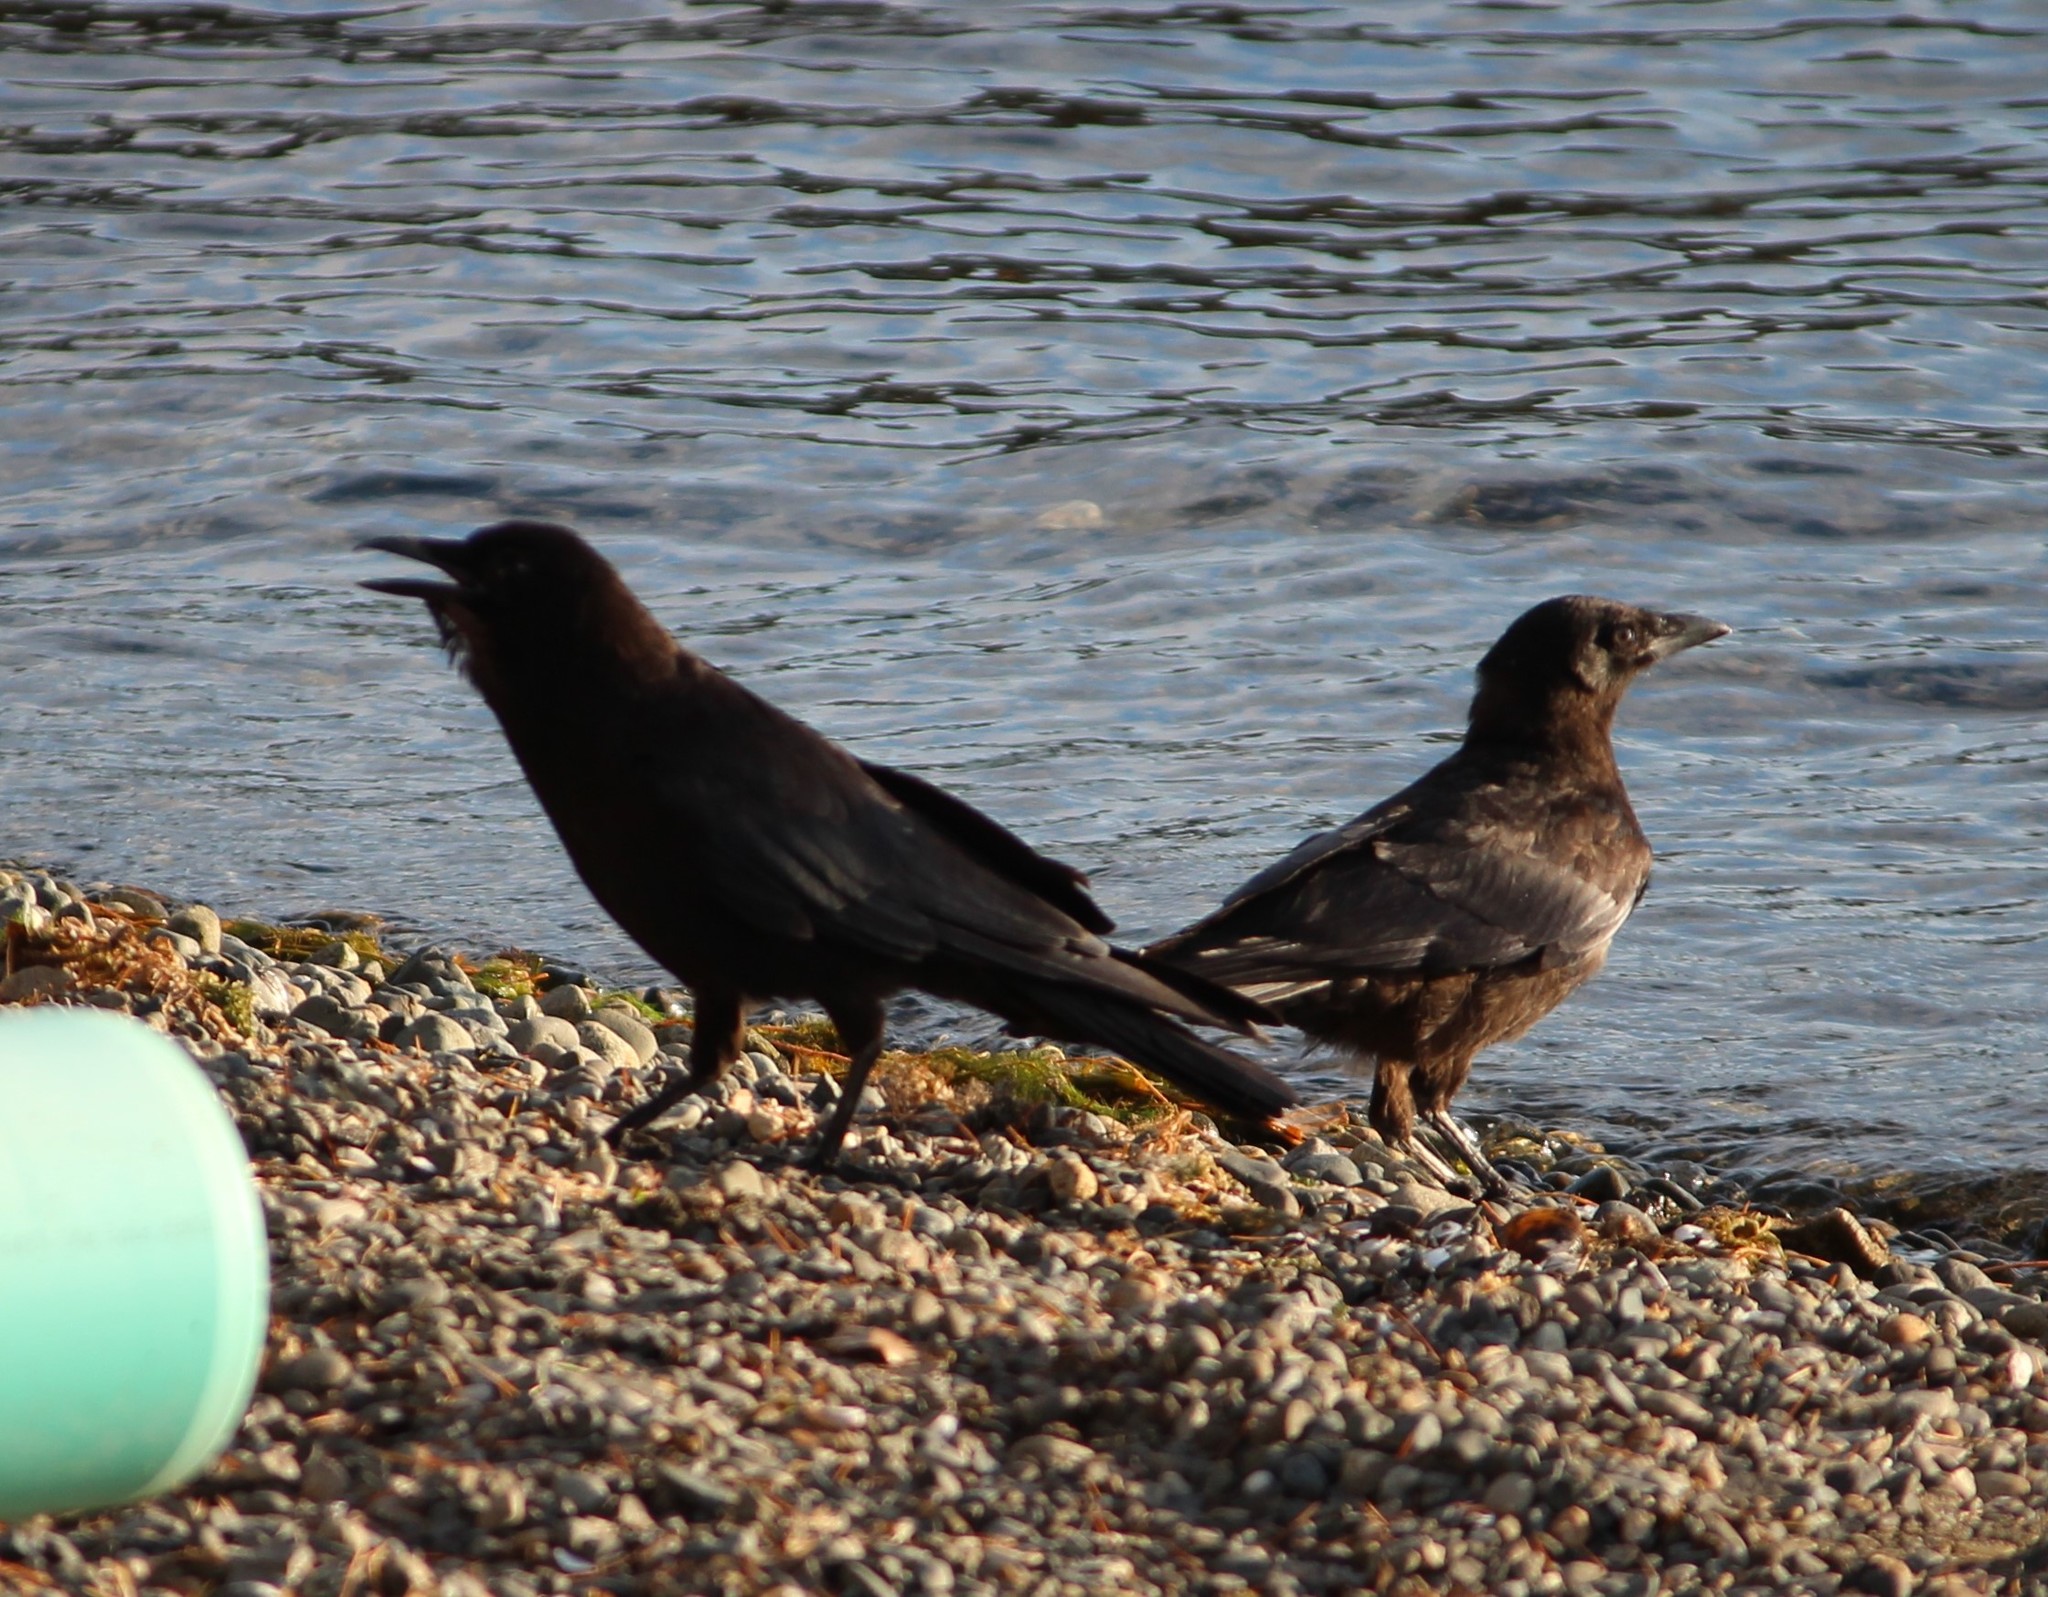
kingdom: Animalia
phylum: Chordata
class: Aves
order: Passeriformes
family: Corvidae
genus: Corvus
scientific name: Corvus brachyrhynchos
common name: American crow
